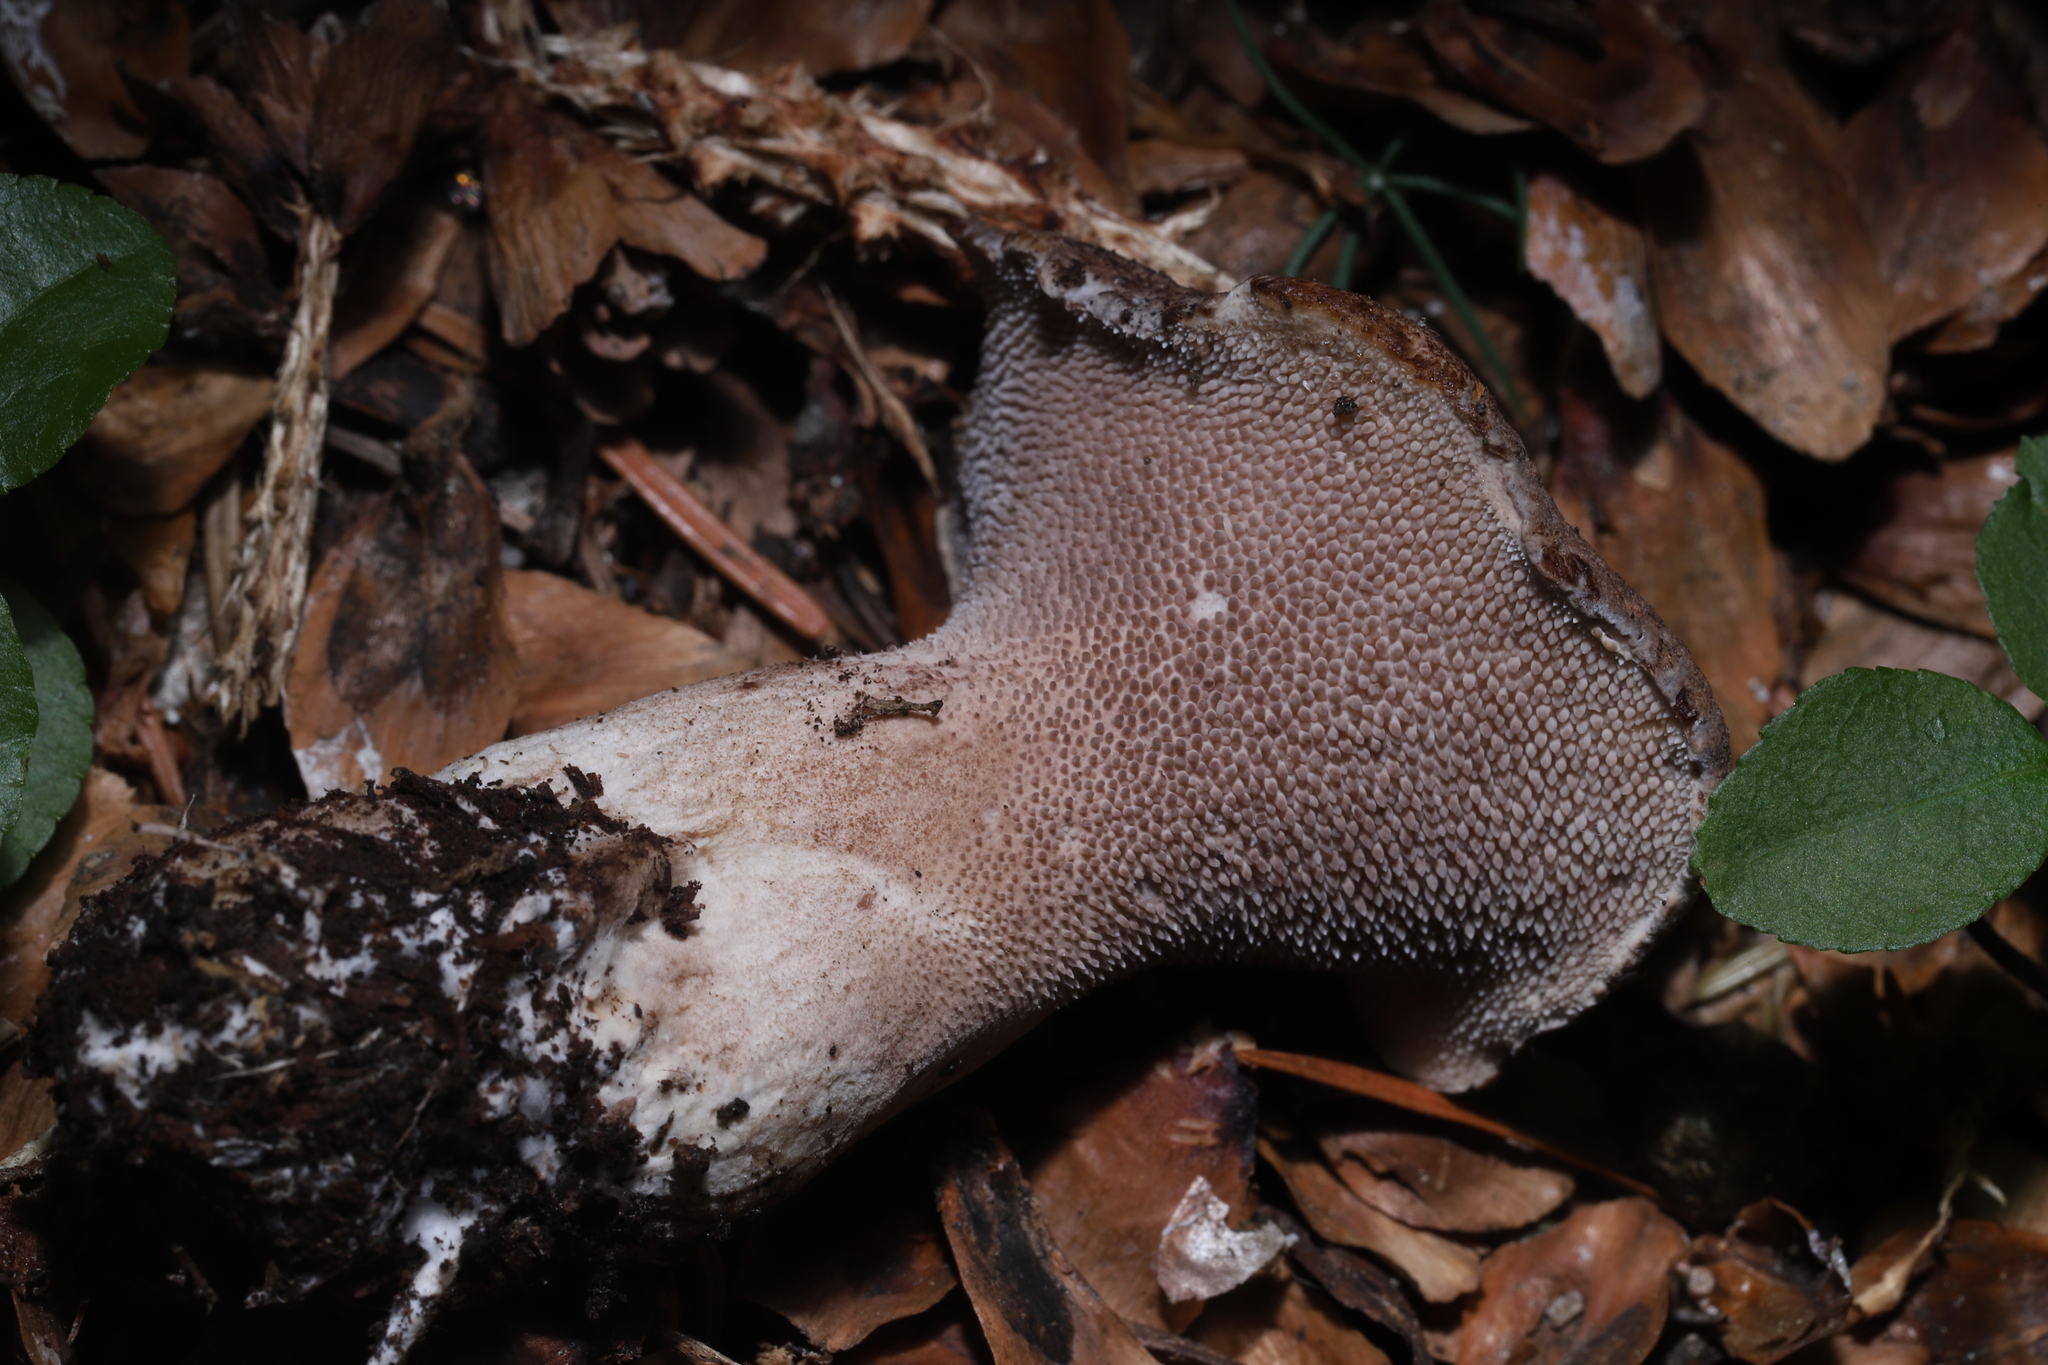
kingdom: Fungi
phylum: Basidiomycota
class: Agaricomycetes
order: Thelephorales
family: Bankeraceae
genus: Sarcodon
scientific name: Sarcodon imbricatus
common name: Shingled hedgehog
